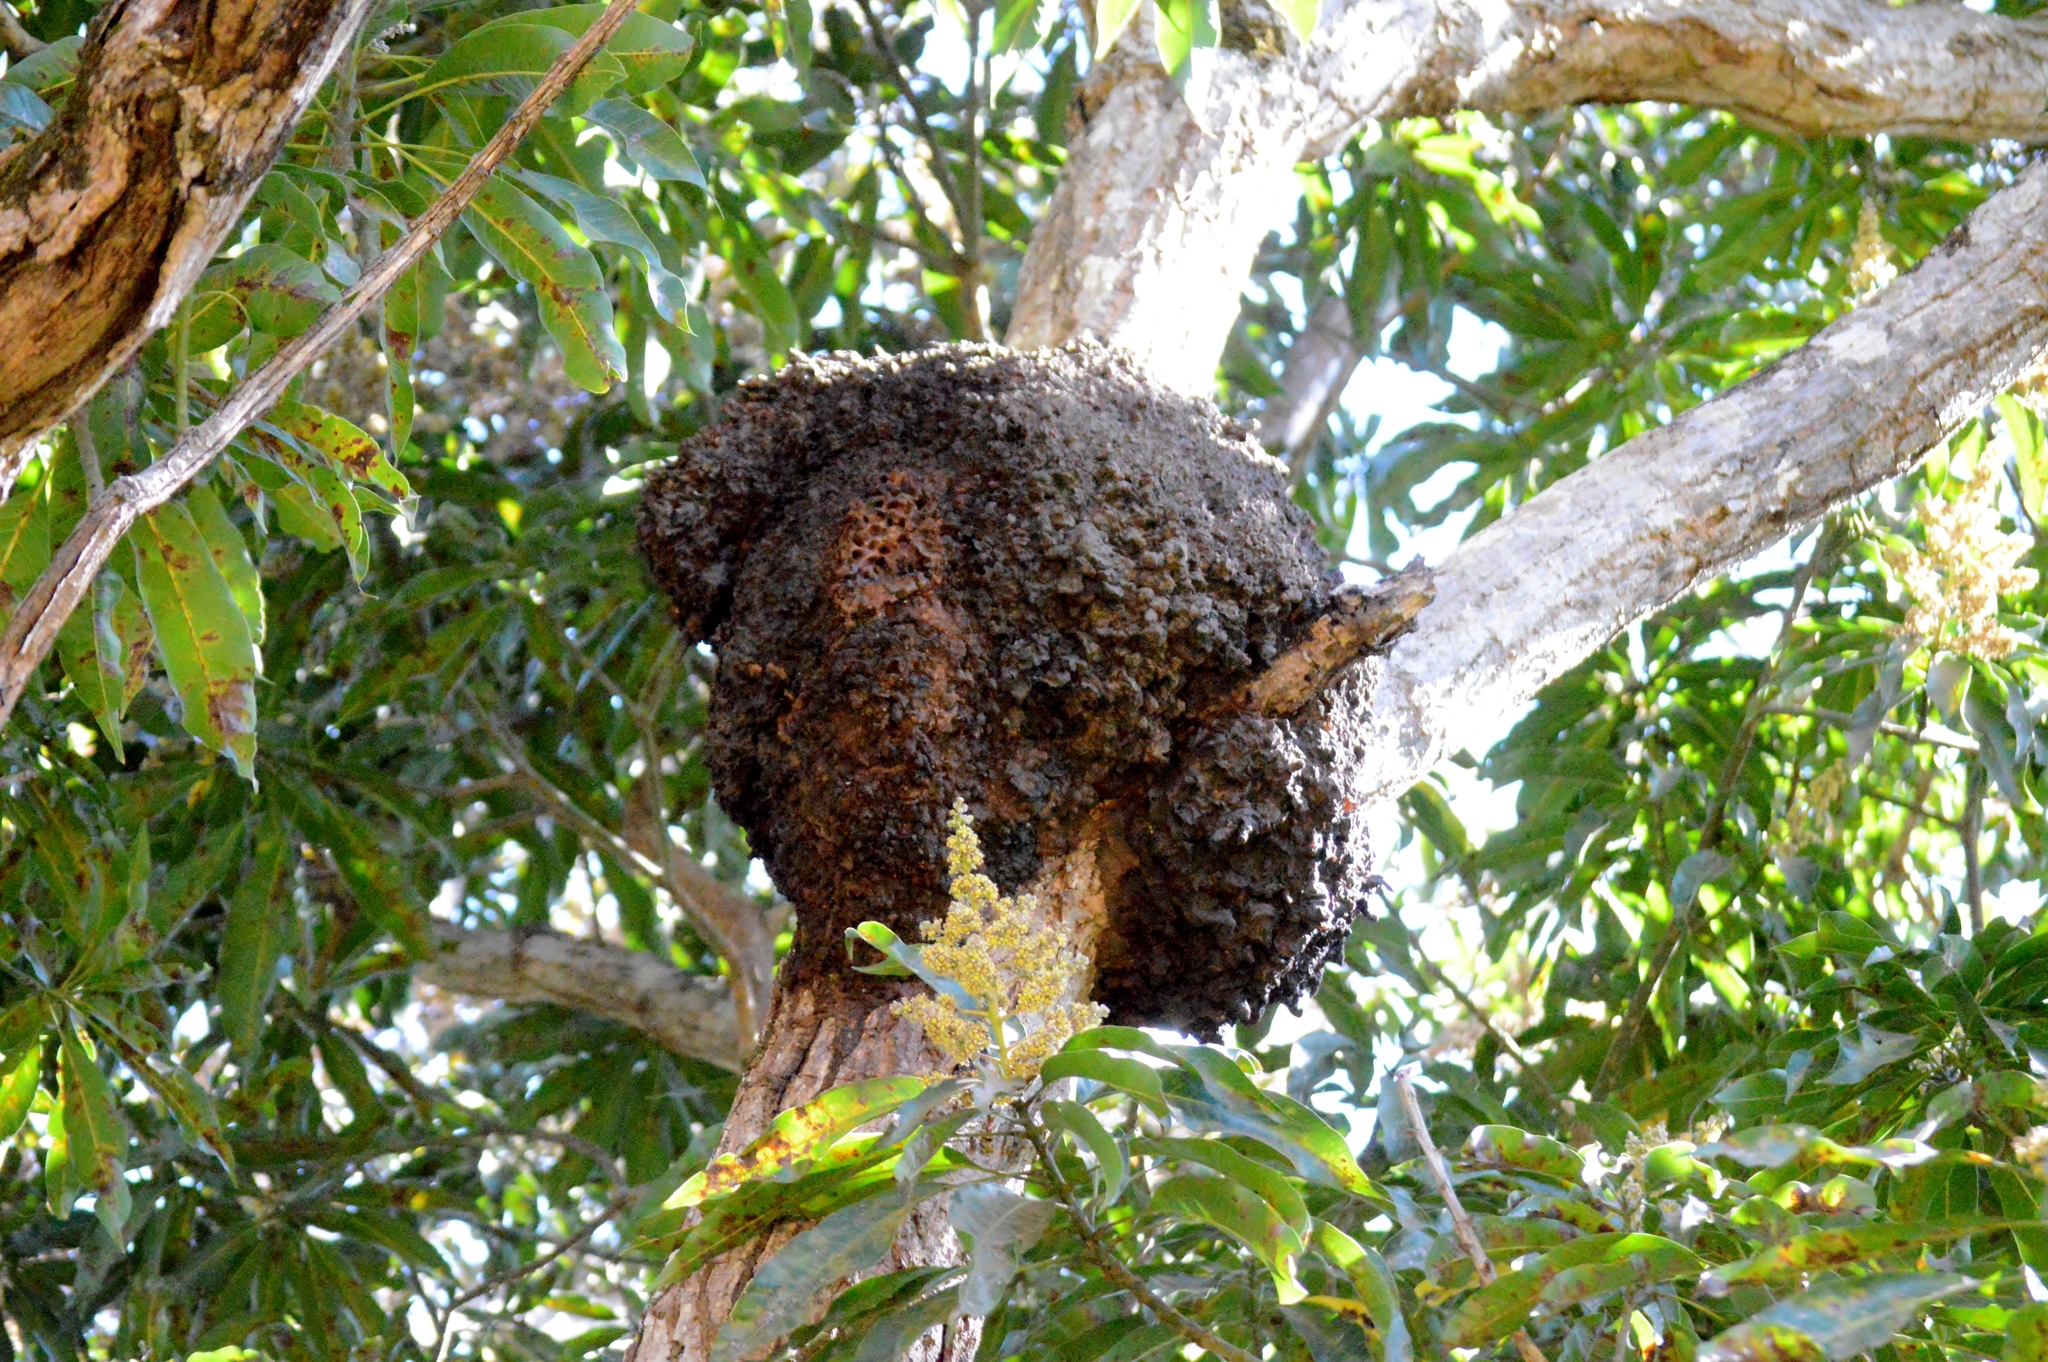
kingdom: Animalia
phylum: Arthropoda
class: Insecta
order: Blattodea
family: Termitidae
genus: Nasutitermes
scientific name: Nasutitermes corniger
